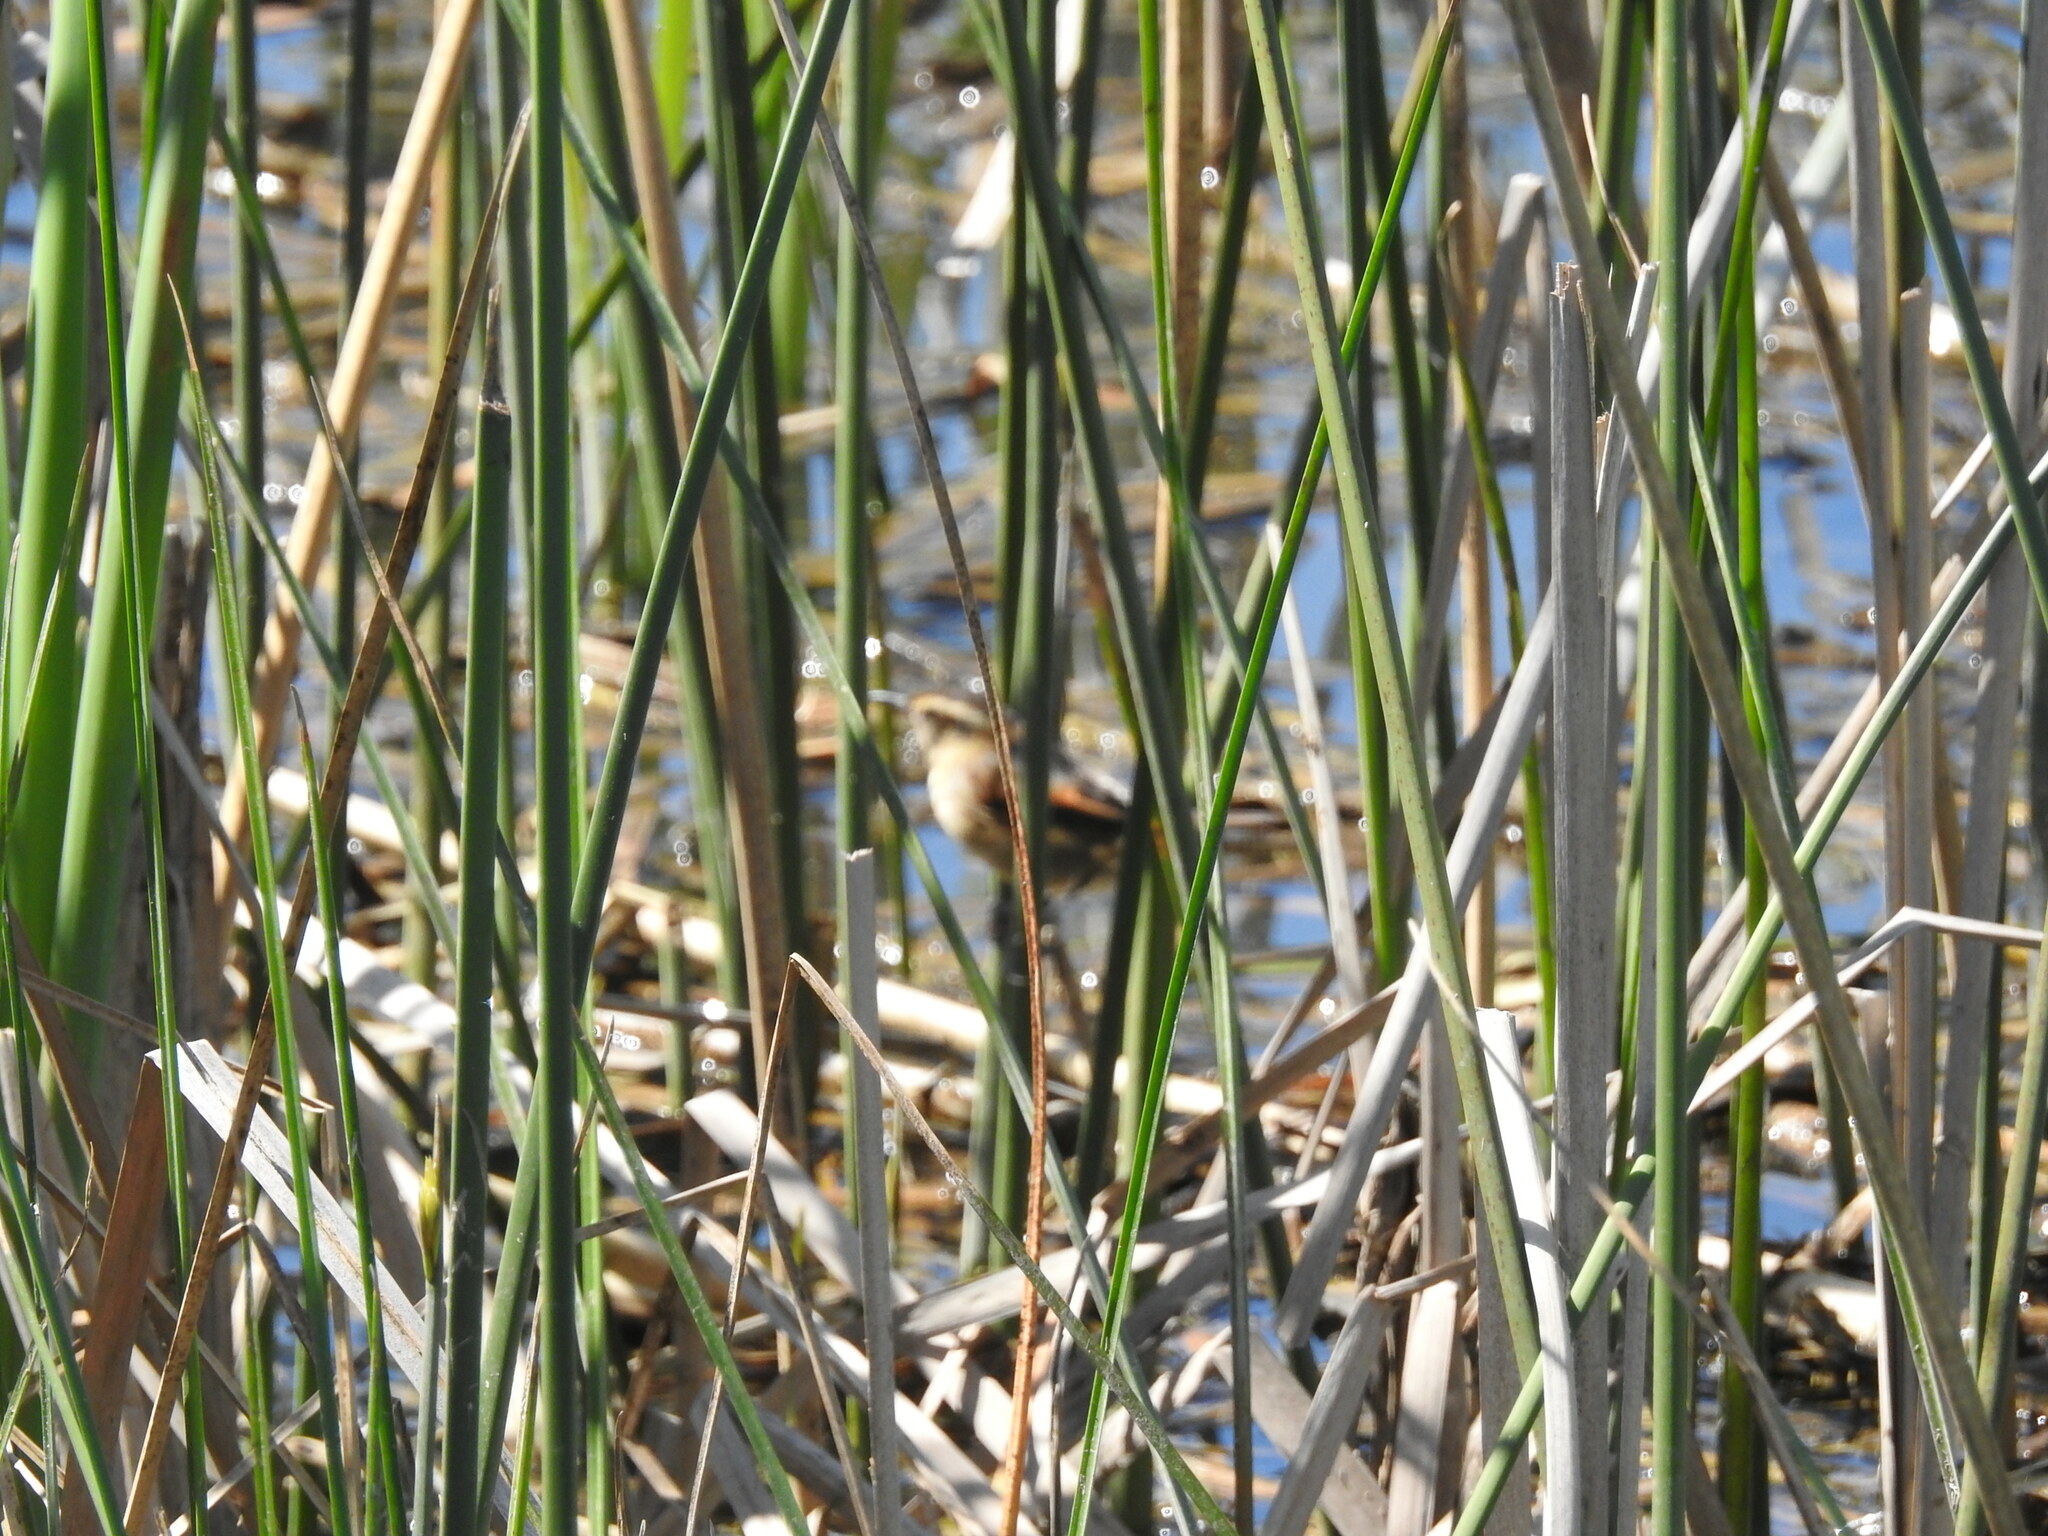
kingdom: Animalia
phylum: Chordata
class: Aves
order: Passeriformes
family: Furnariidae
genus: Phleocryptes
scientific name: Phleocryptes melanops
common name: Wren-like rushbird
